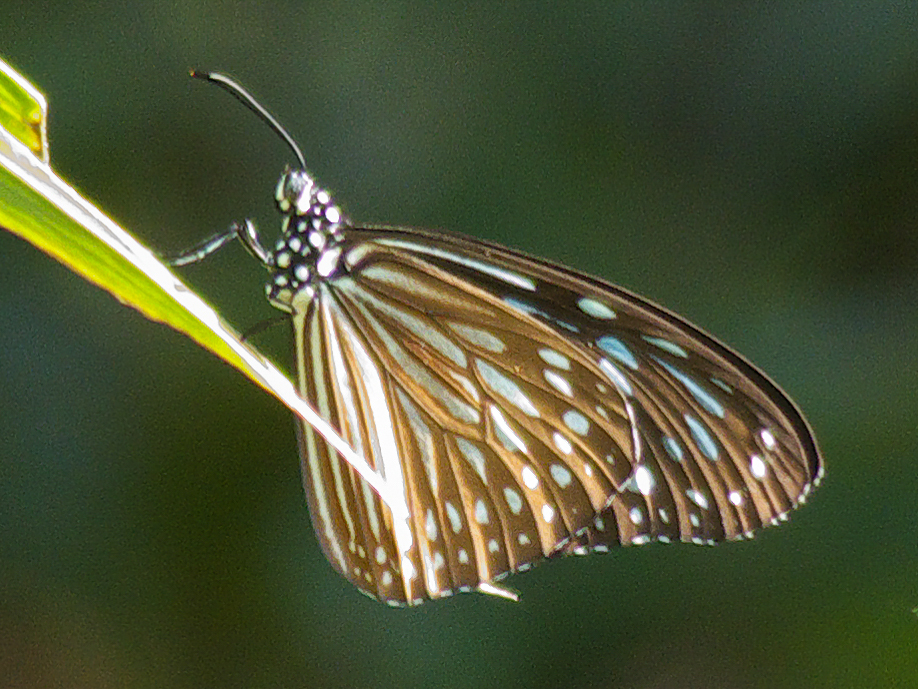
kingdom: Animalia
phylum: Arthropoda
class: Insecta
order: Lepidoptera
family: Nymphalidae
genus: Parantica
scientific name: Parantica agleoides
